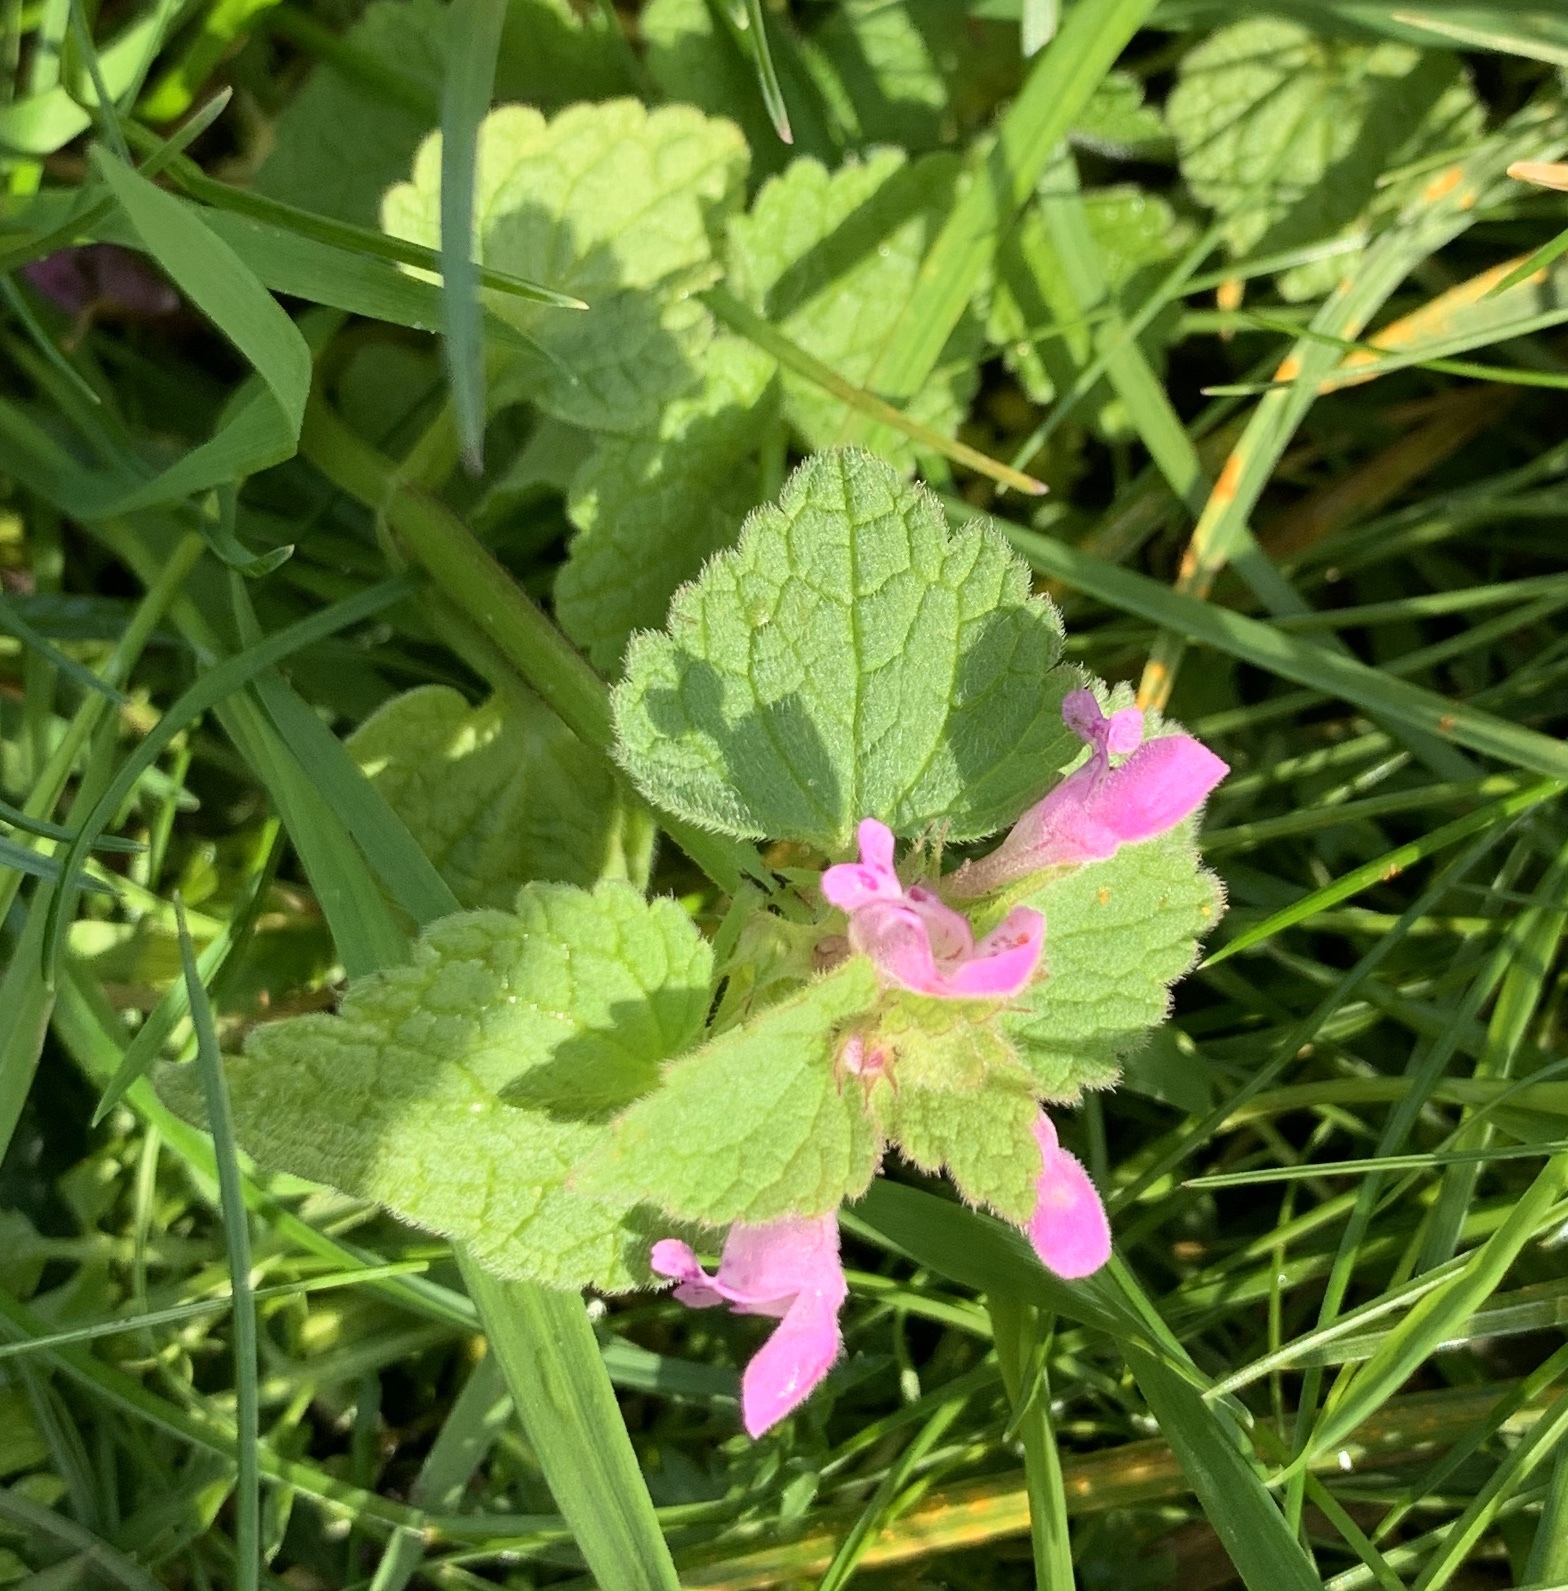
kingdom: Plantae
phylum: Tracheophyta
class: Magnoliopsida
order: Lamiales
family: Lamiaceae
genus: Lamium
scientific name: Lamium purpureum
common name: Red dead-nettle
